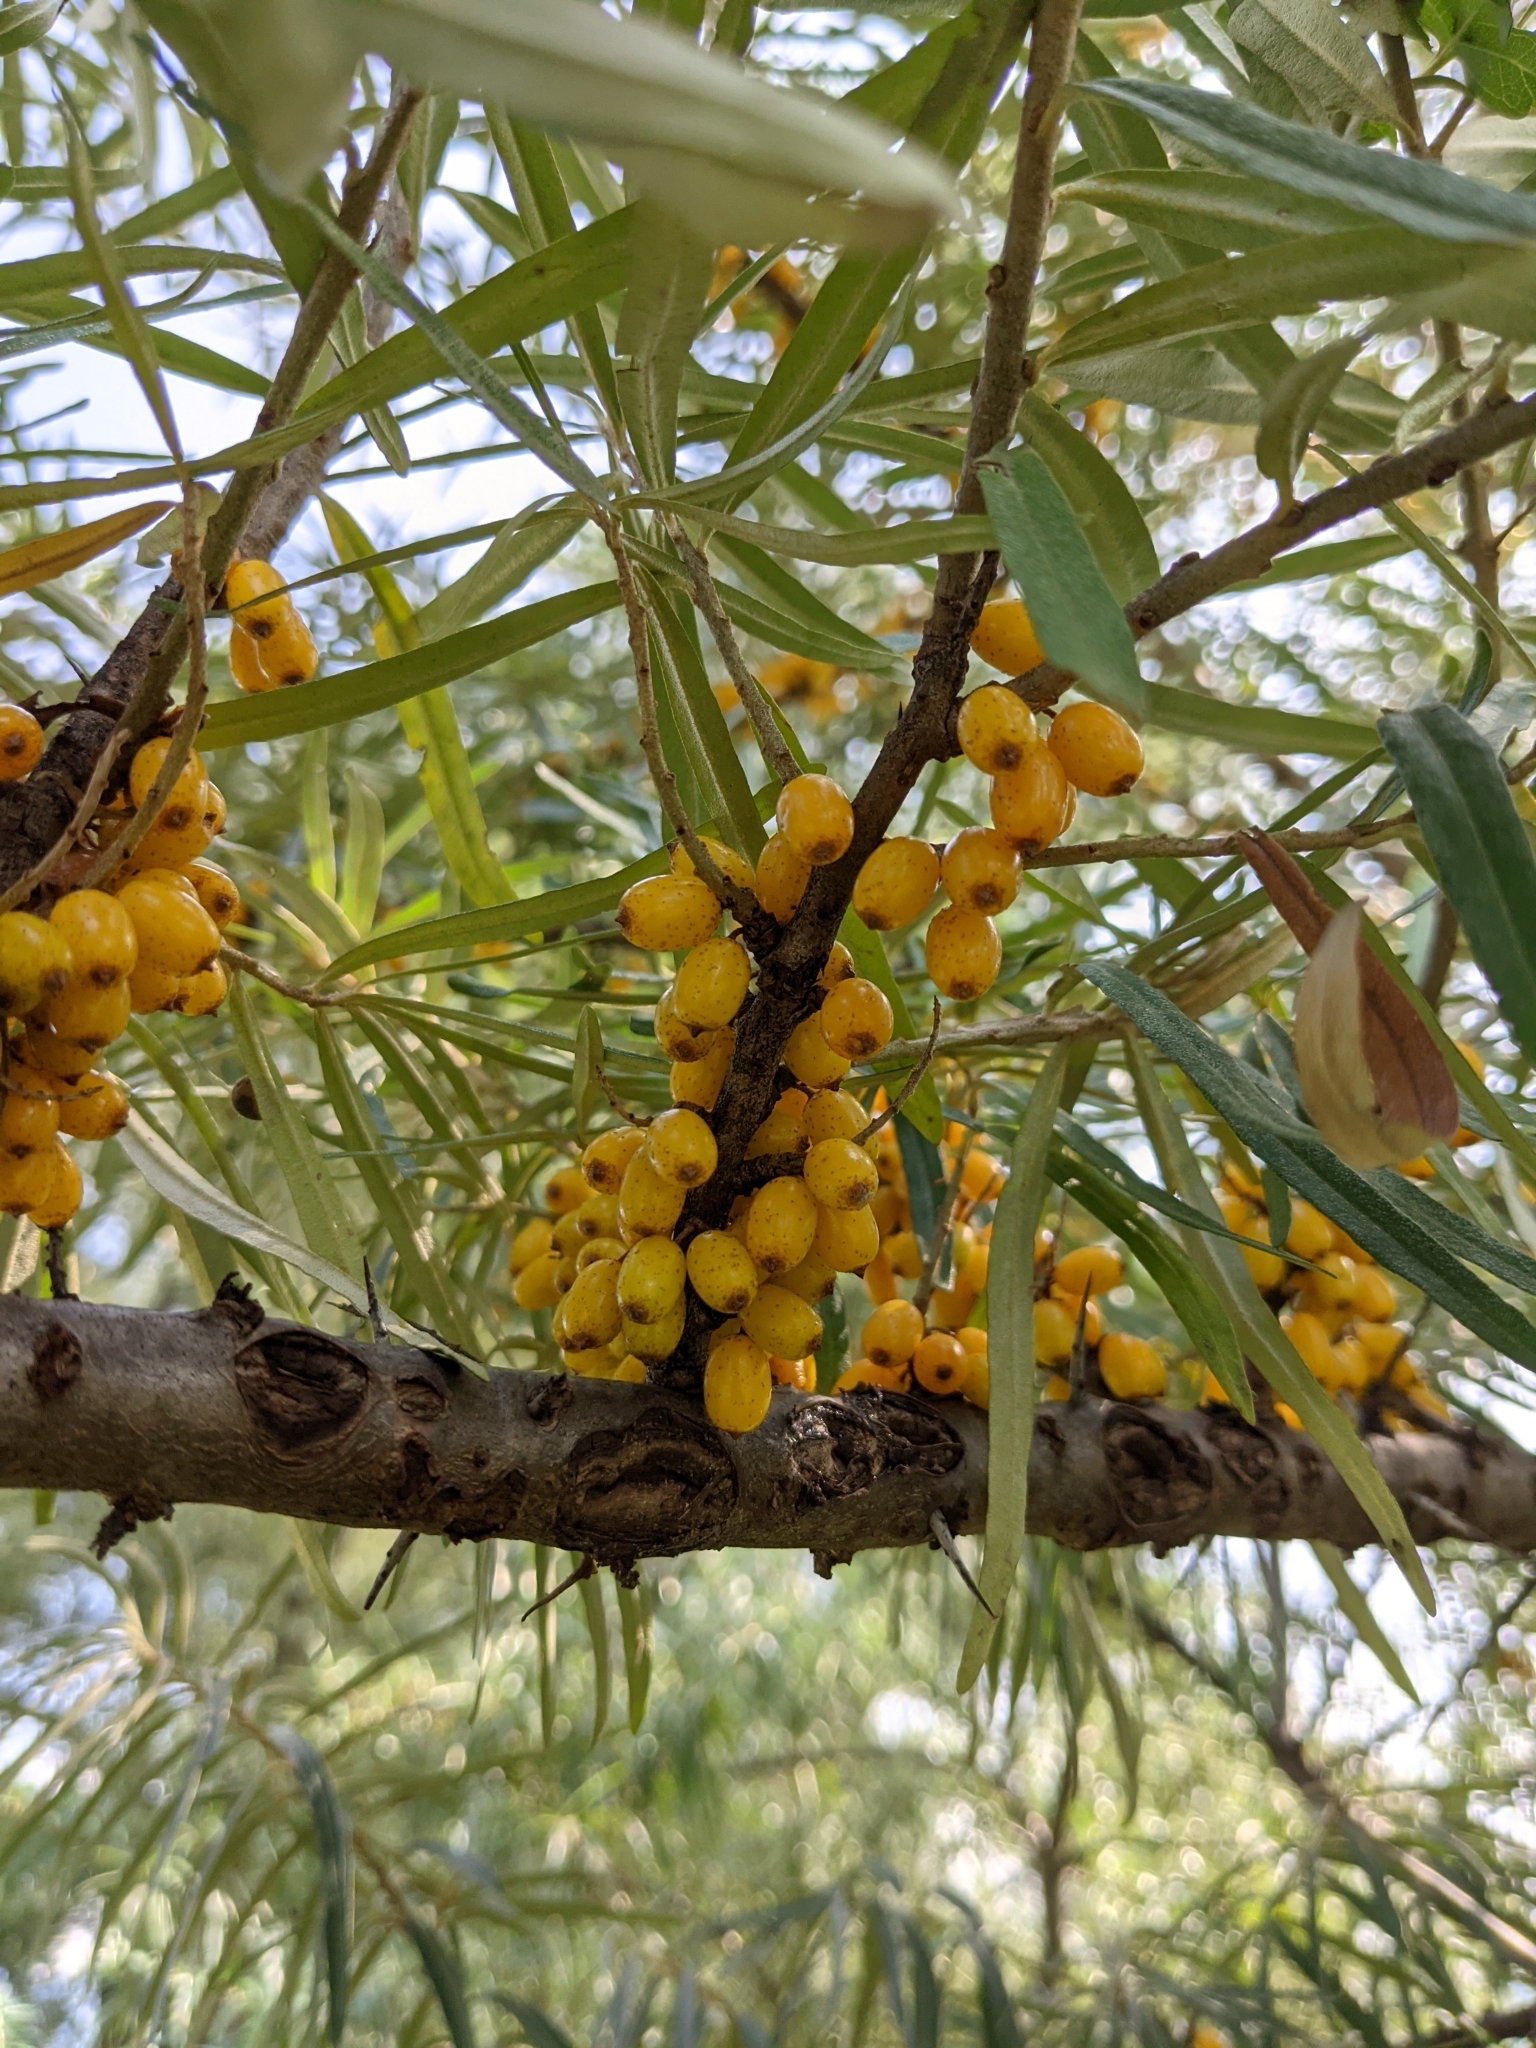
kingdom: Plantae
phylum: Tracheophyta
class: Magnoliopsida
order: Rosales
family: Elaeagnaceae
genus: Hippophae
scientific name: Hippophae rhamnoides
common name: Sea-buckthorn
